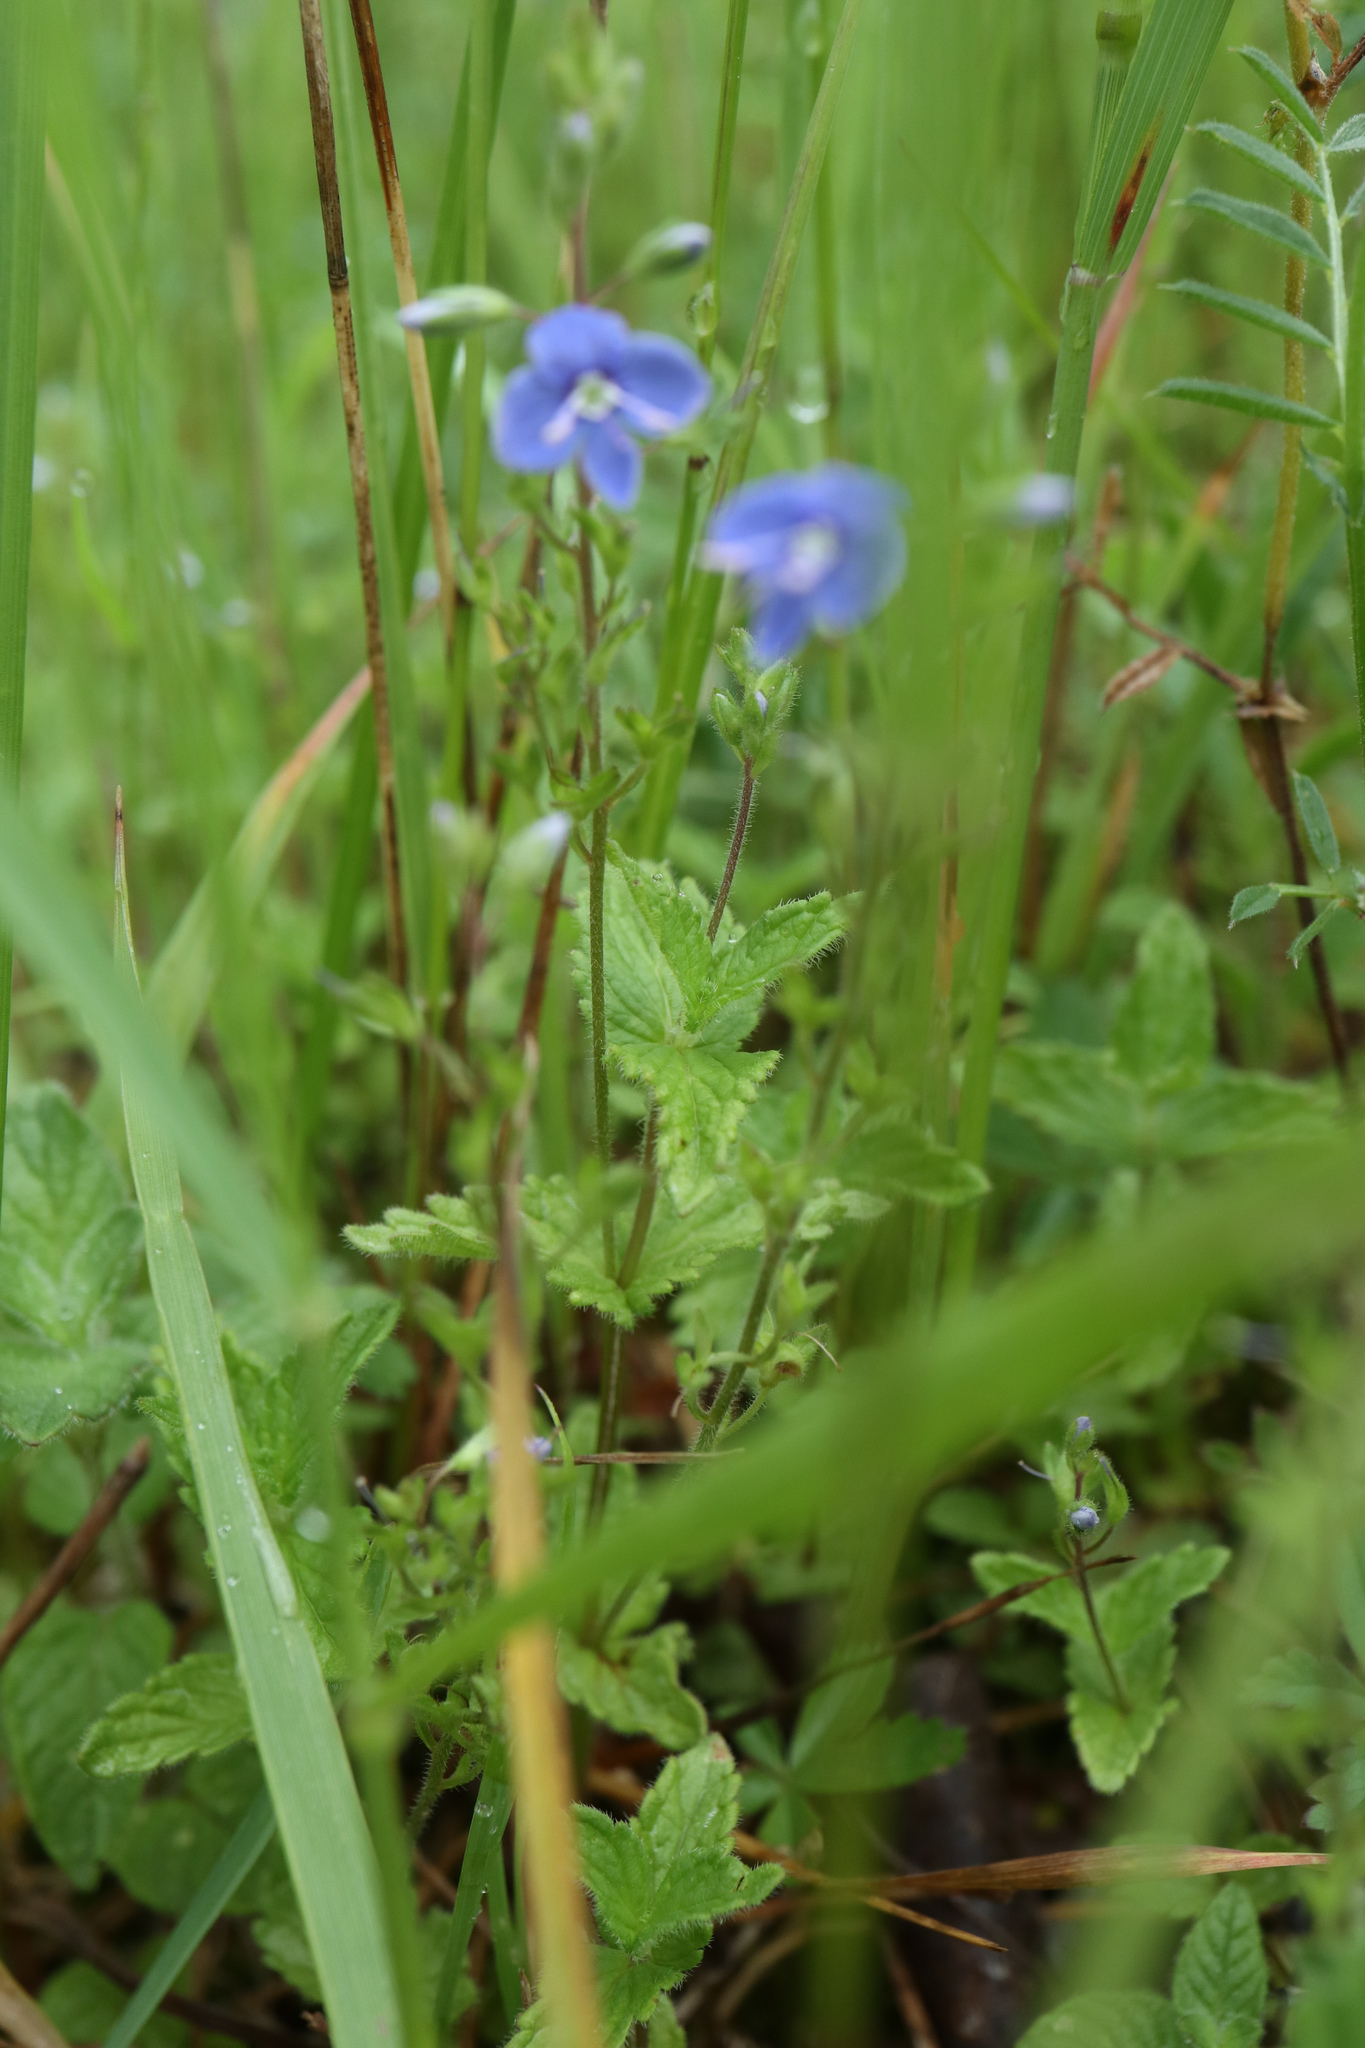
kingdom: Plantae
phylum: Tracheophyta
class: Magnoliopsida
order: Lamiales
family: Plantaginaceae
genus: Veronica
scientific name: Veronica chamaedrys
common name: Germander speedwell
